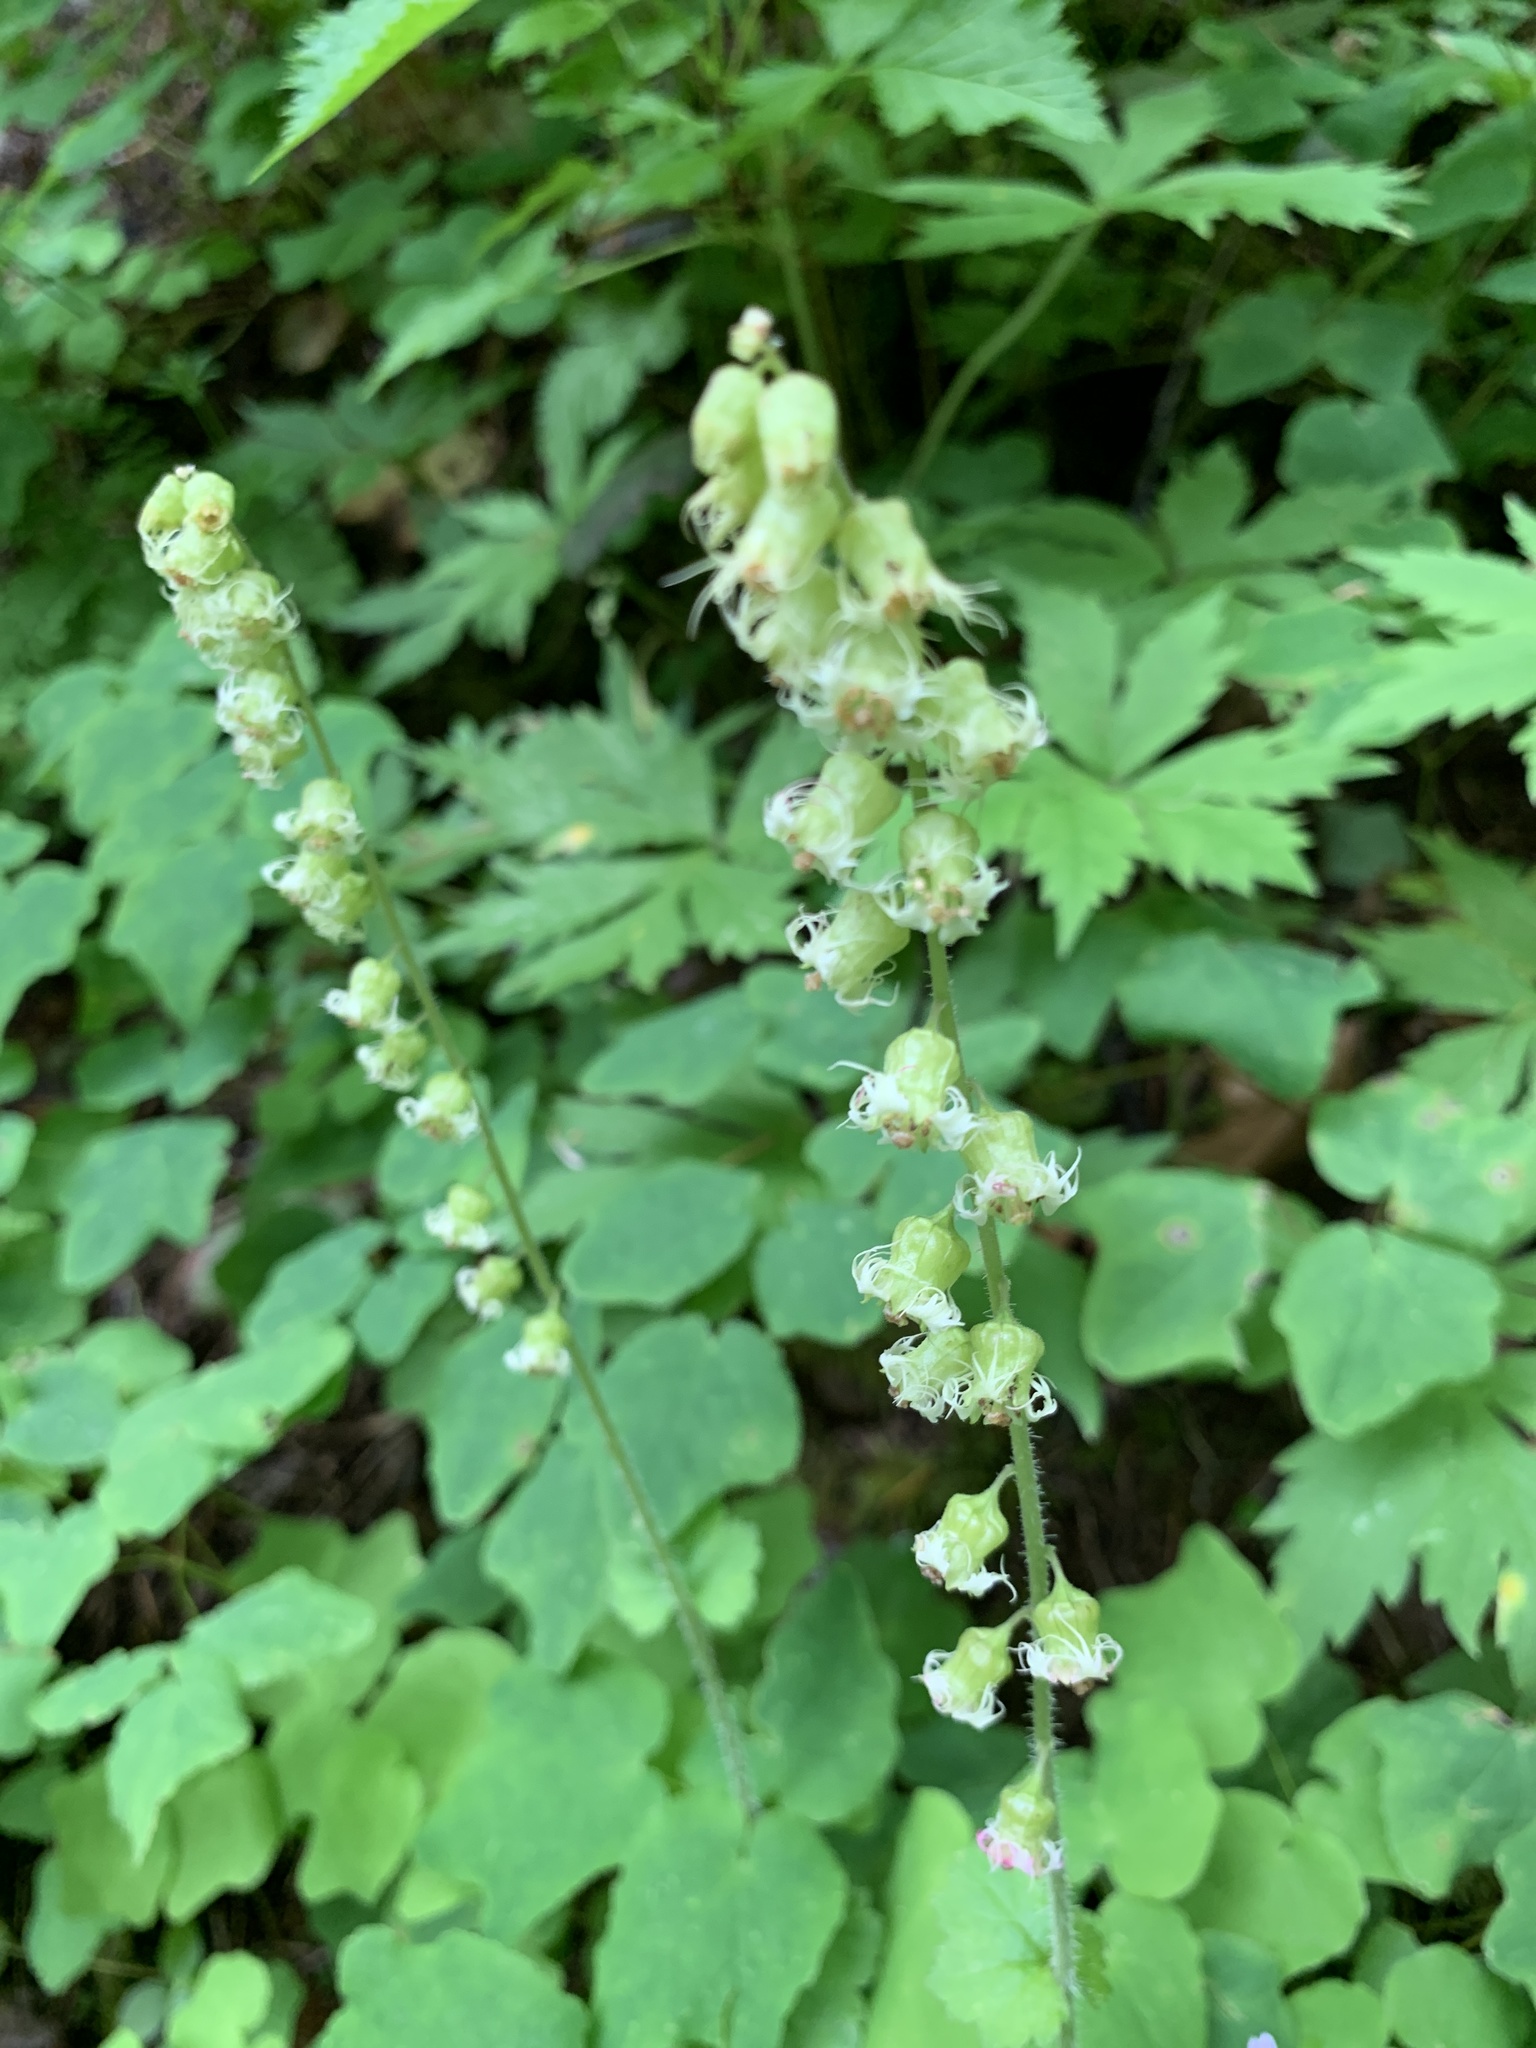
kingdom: Plantae
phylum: Tracheophyta
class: Magnoliopsida
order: Saxifragales
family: Saxifragaceae
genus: Tellima
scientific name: Tellima grandiflora
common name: Fringecups
